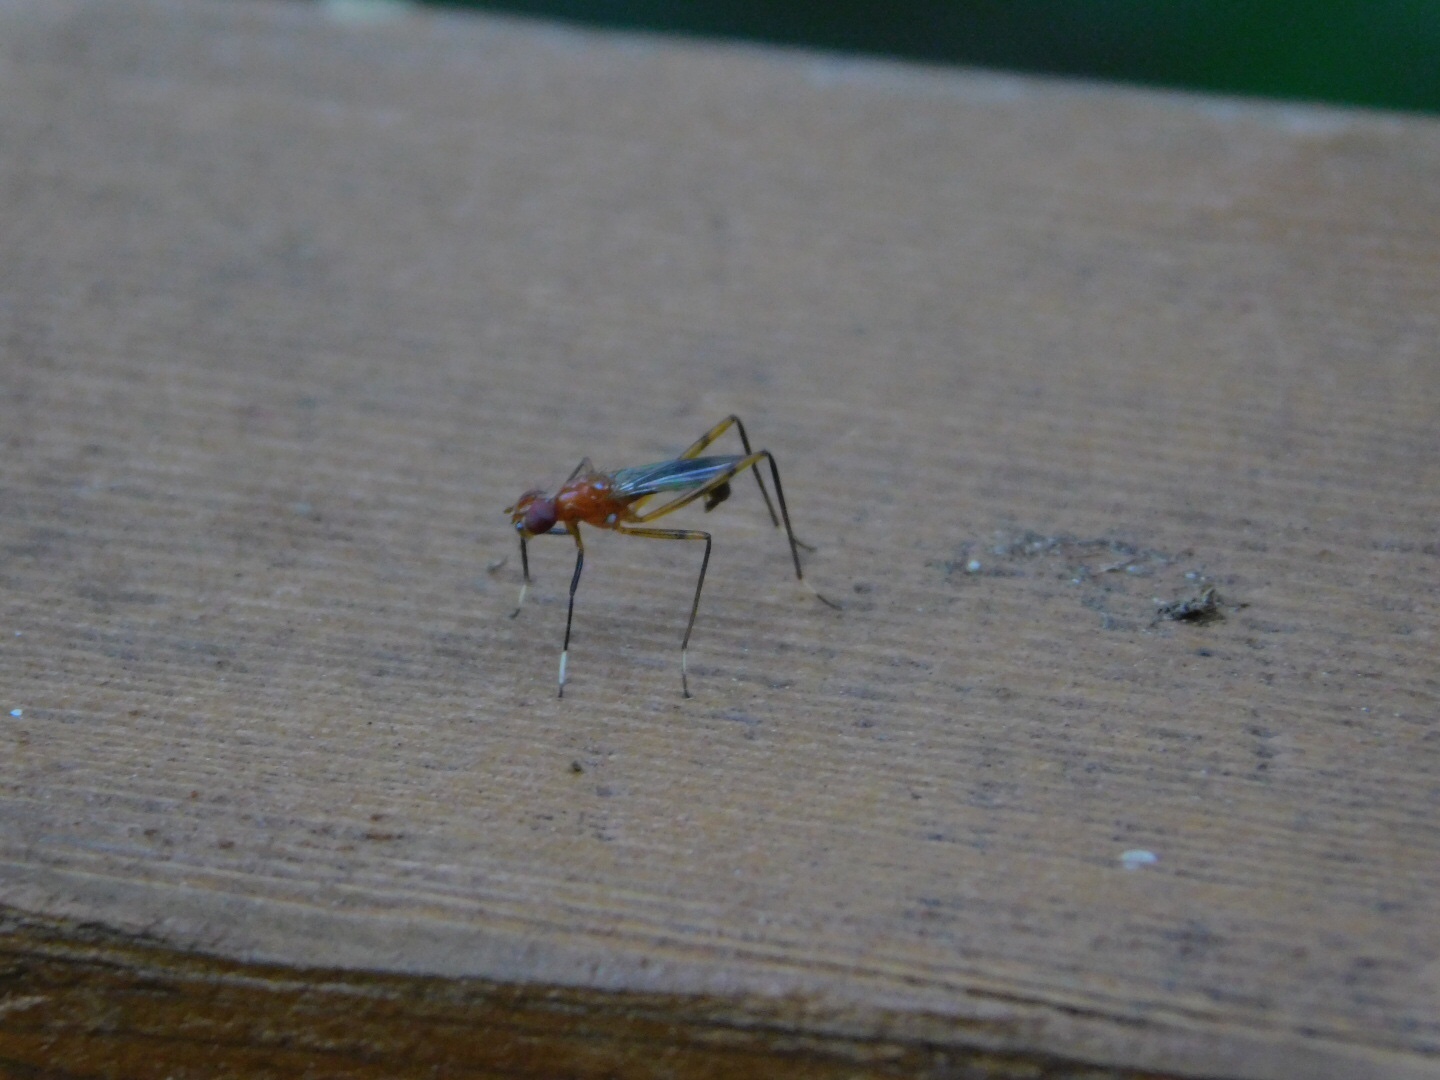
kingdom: Animalia
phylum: Arthropoda
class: Insecta
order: Diptera
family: Micropezidae
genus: Grallipeza
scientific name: Grallipeza nebulosa
